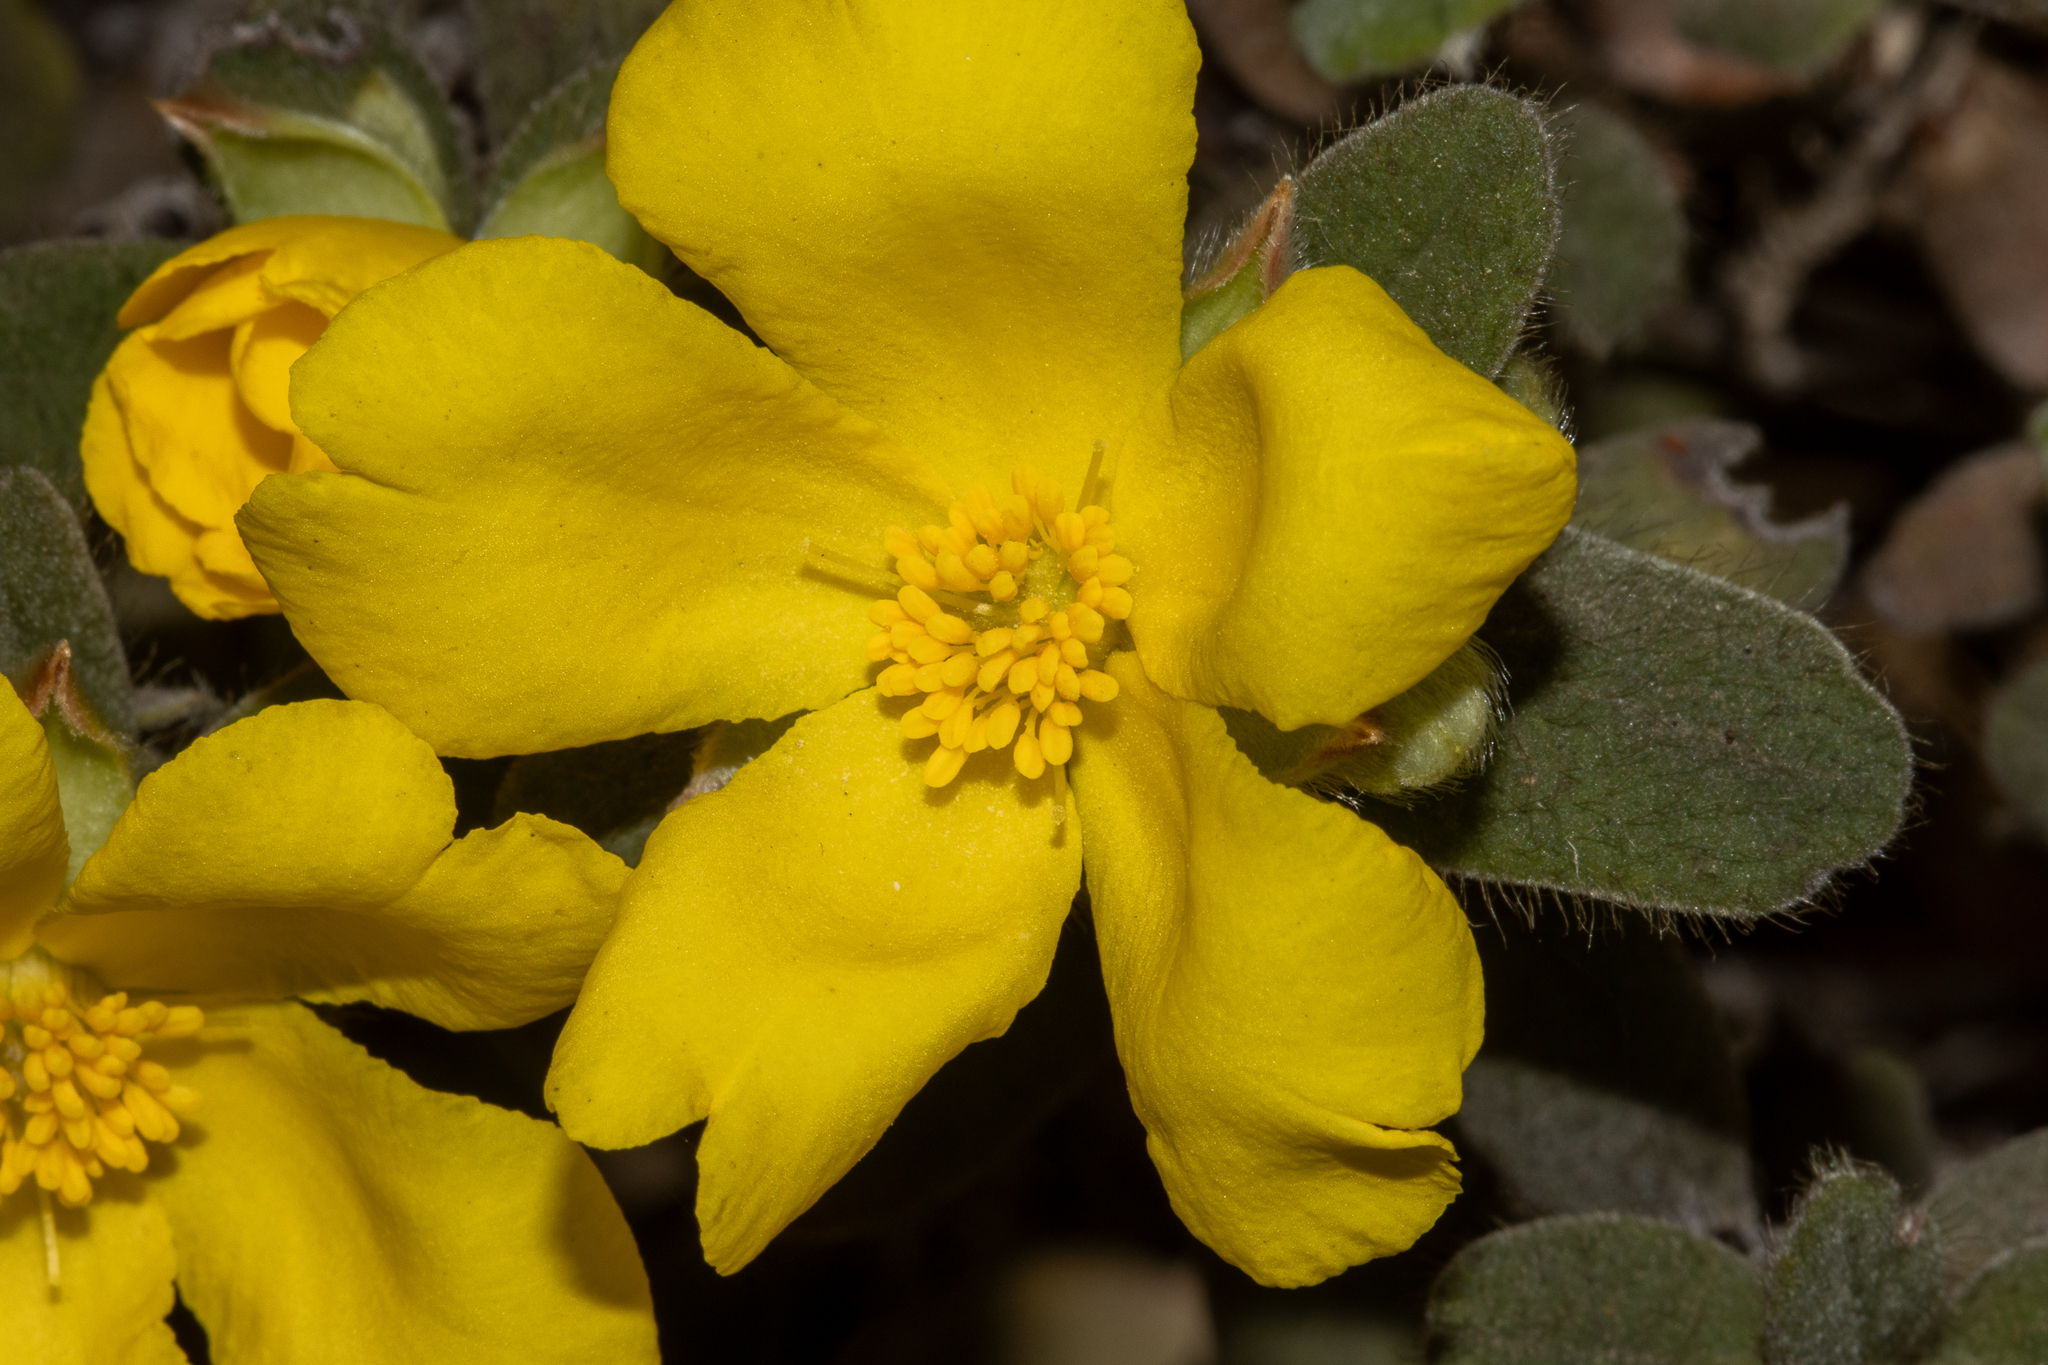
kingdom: Plantae
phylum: Tracheophyta
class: Magnoliopsida
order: Dilleniales
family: Dilleniaceae
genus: Hibbertia
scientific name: Hibbertia quadricolor
